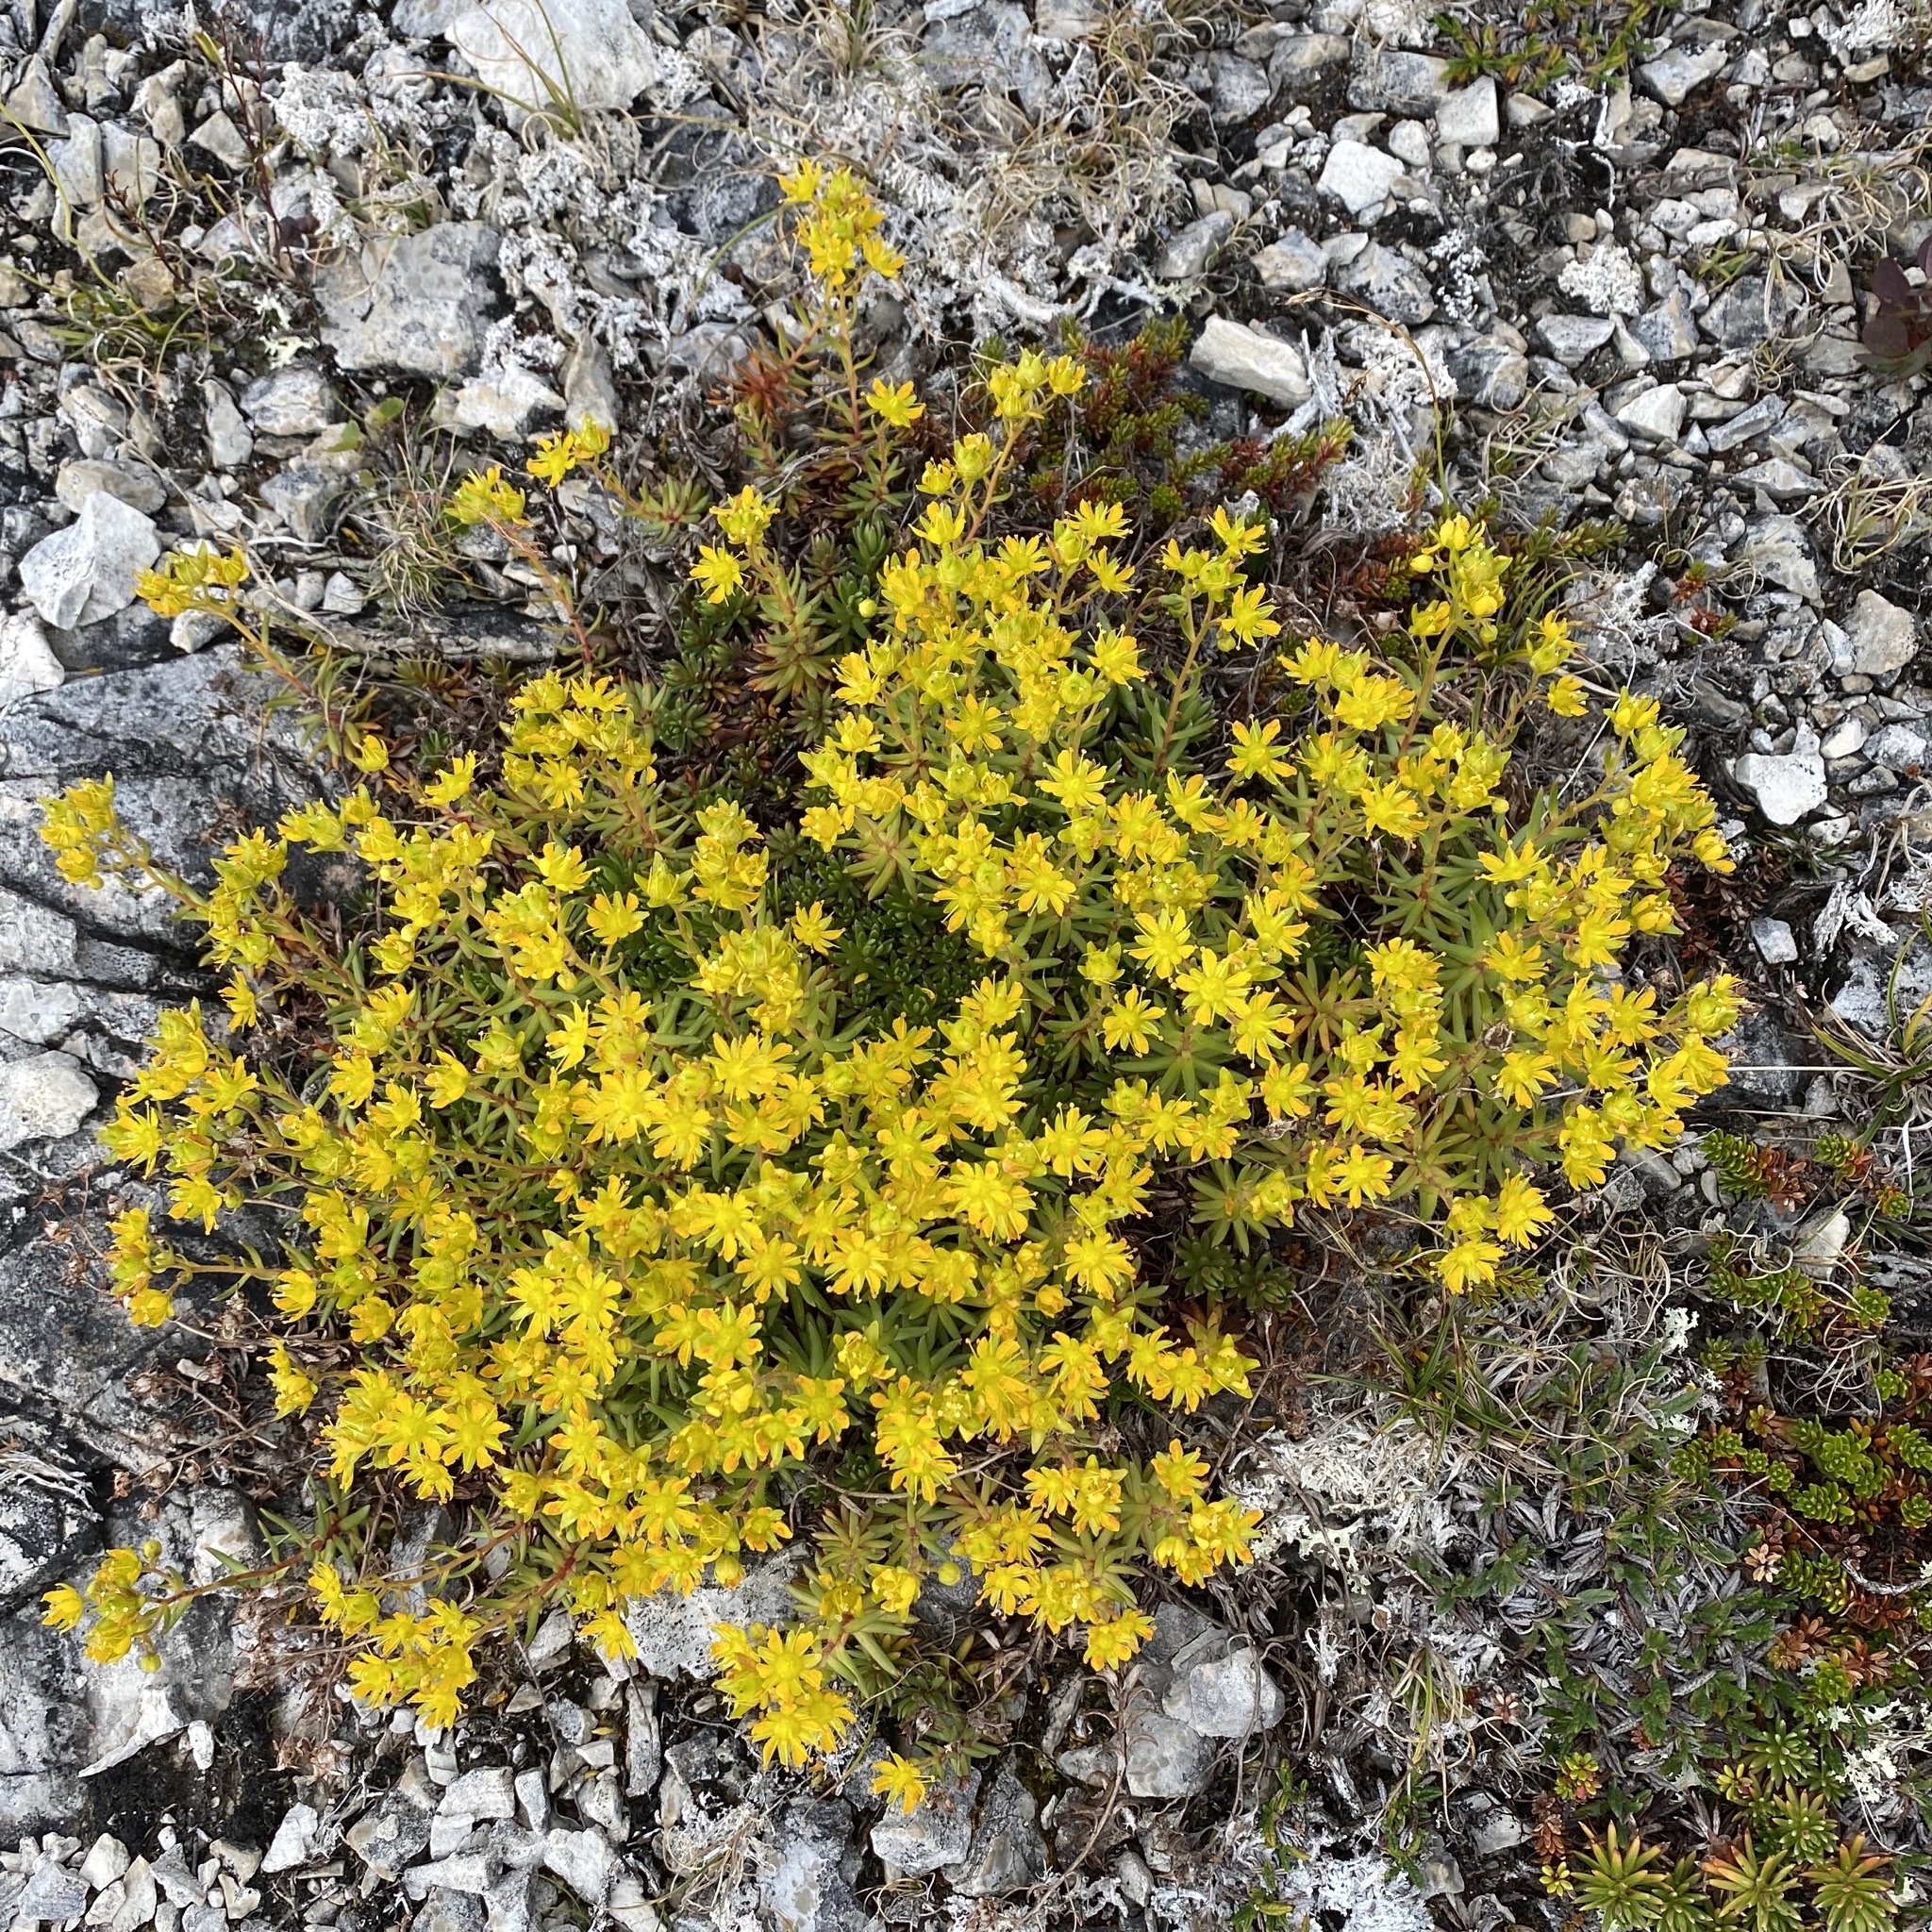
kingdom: Plantae
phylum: Tracheophyta
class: Magnoliopsida
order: Saxifragales
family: Saxifragaceae
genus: Saxifraga
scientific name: Saxifraga aizoides
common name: Yellow mountain saxifrage
